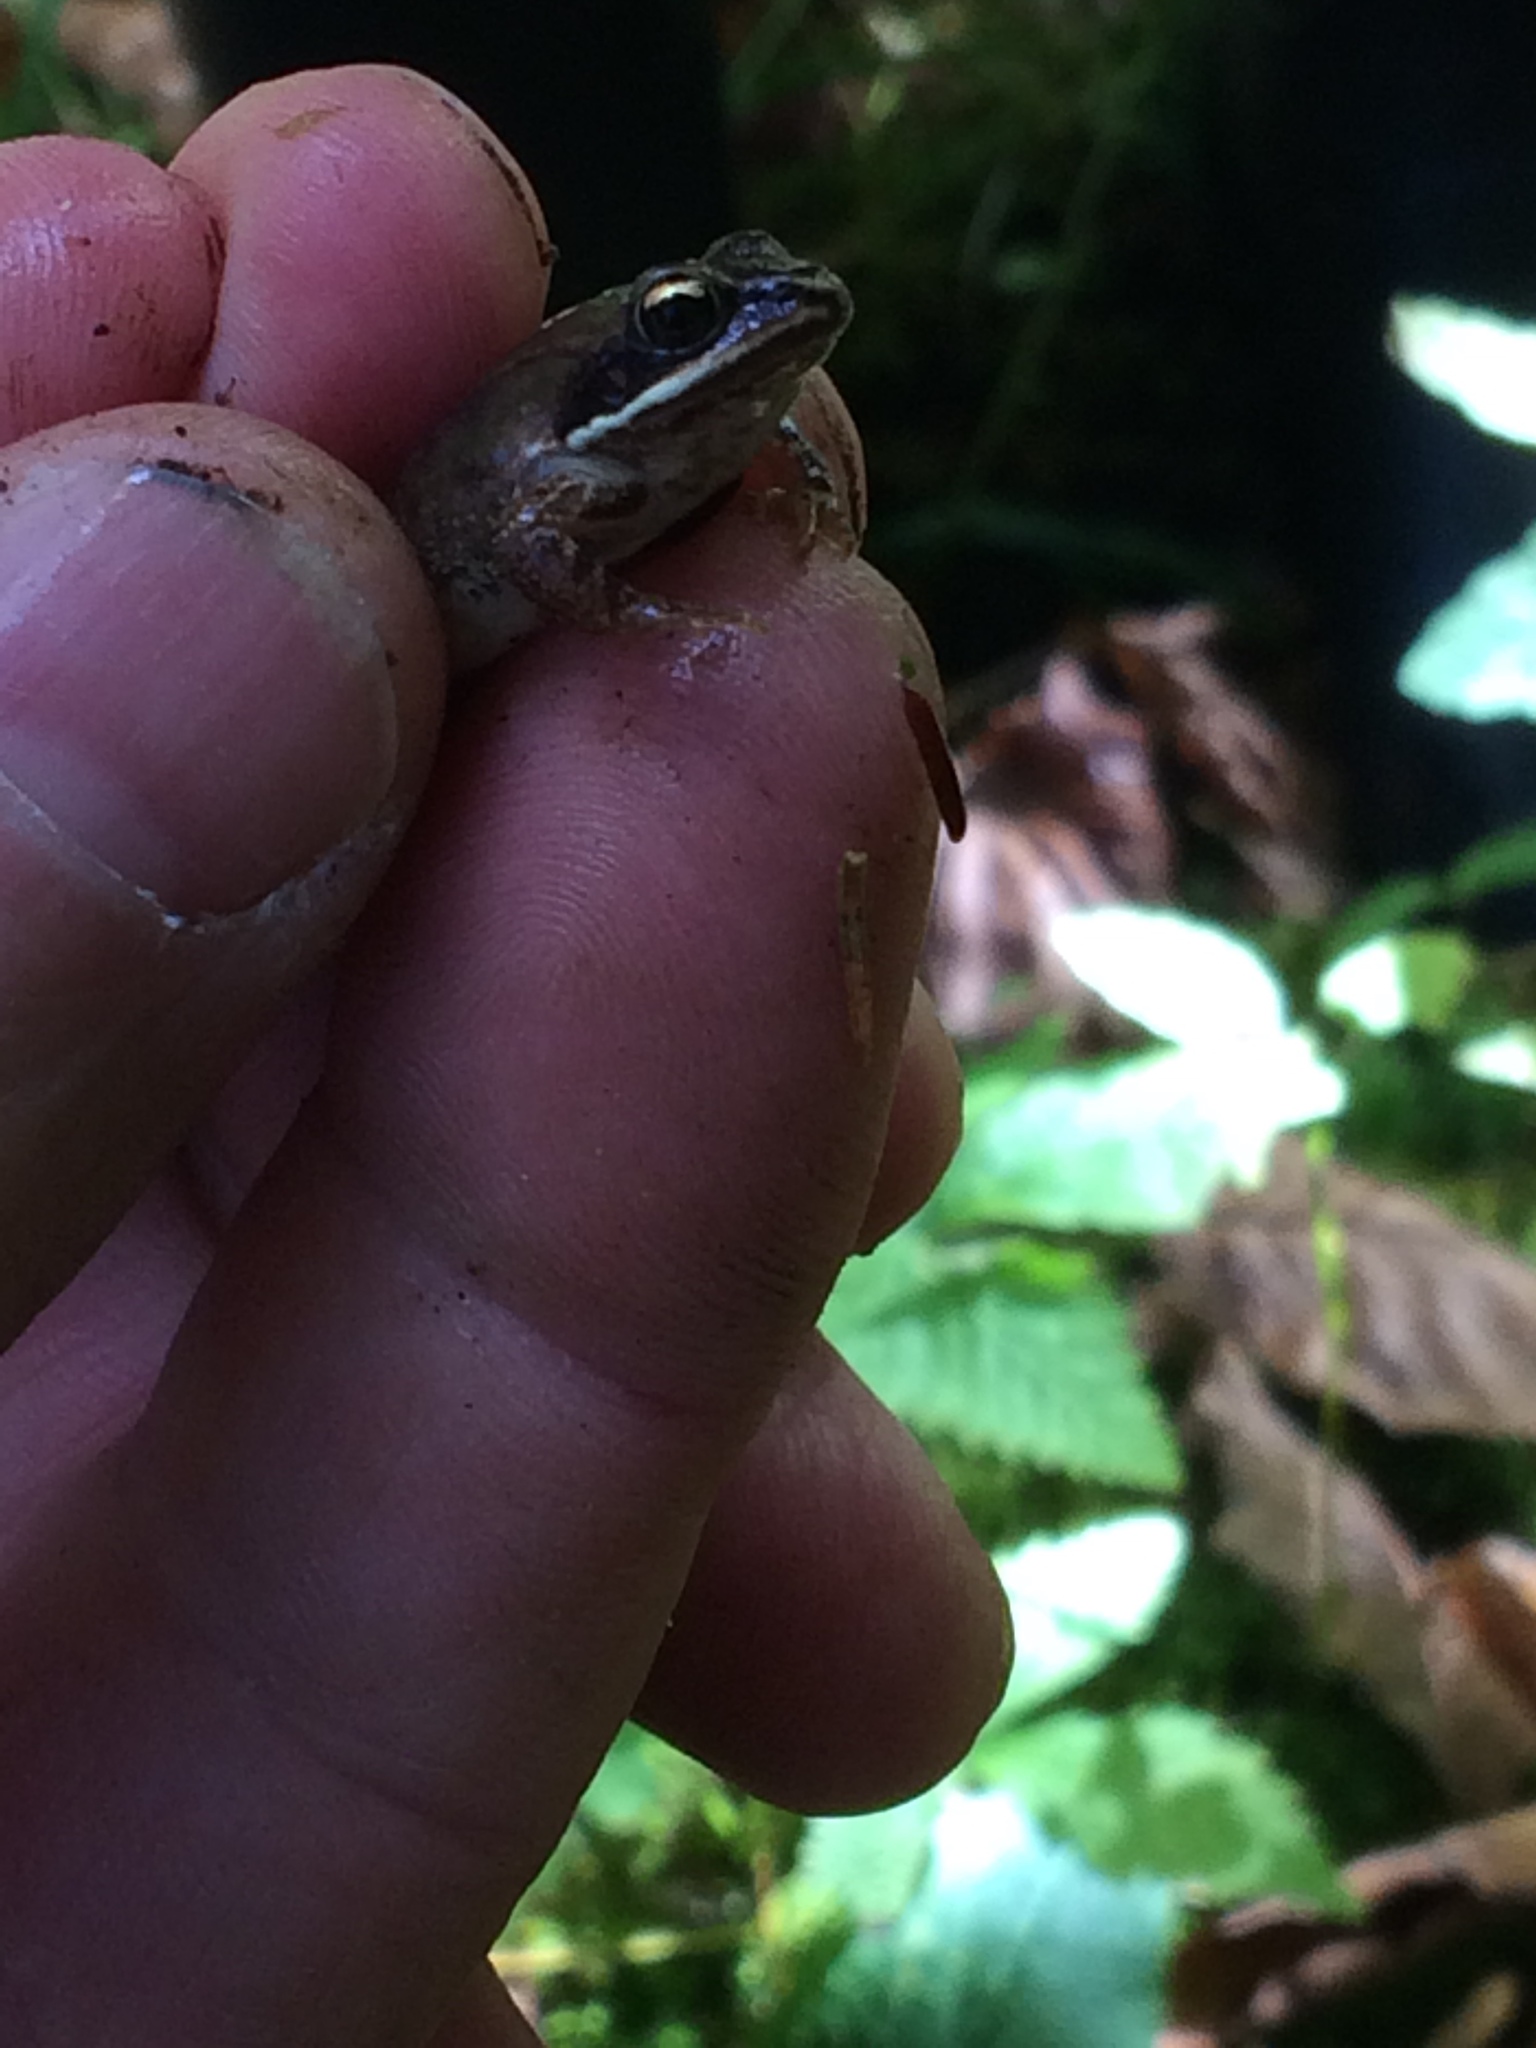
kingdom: Animalia
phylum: Chordata
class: Amphibia
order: Anura
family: Ranidae
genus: Lithobates
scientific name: Lithobates sylvaticus
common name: Wood frog
